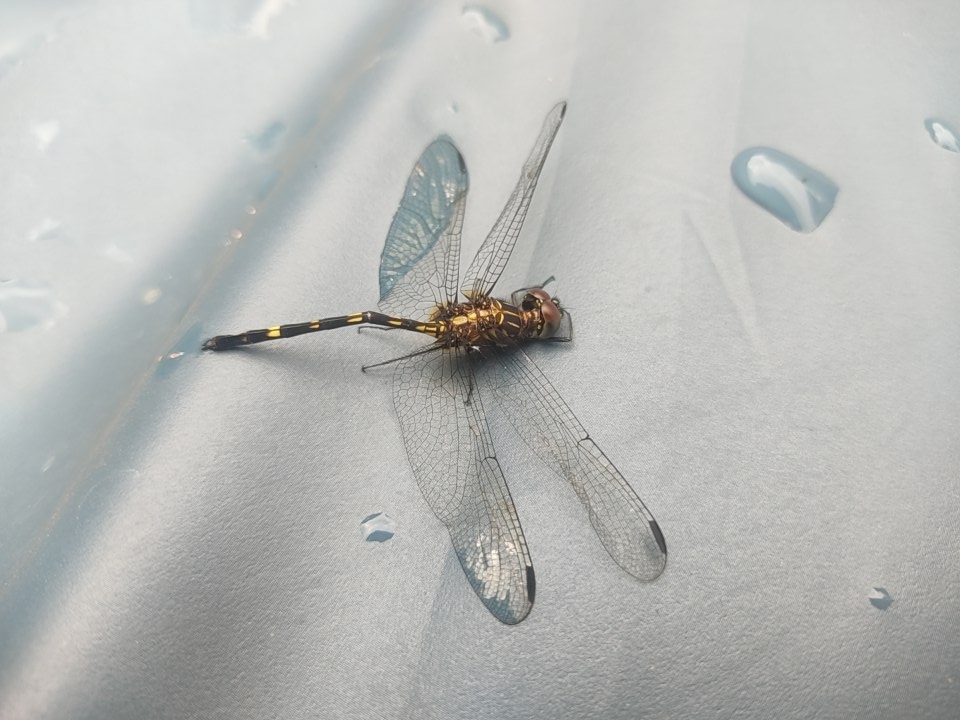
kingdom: Animalia
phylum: Arthropoda
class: Insecta
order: Odonata
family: Libellulidae
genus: Dythemis
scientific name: Dythemis nigra
